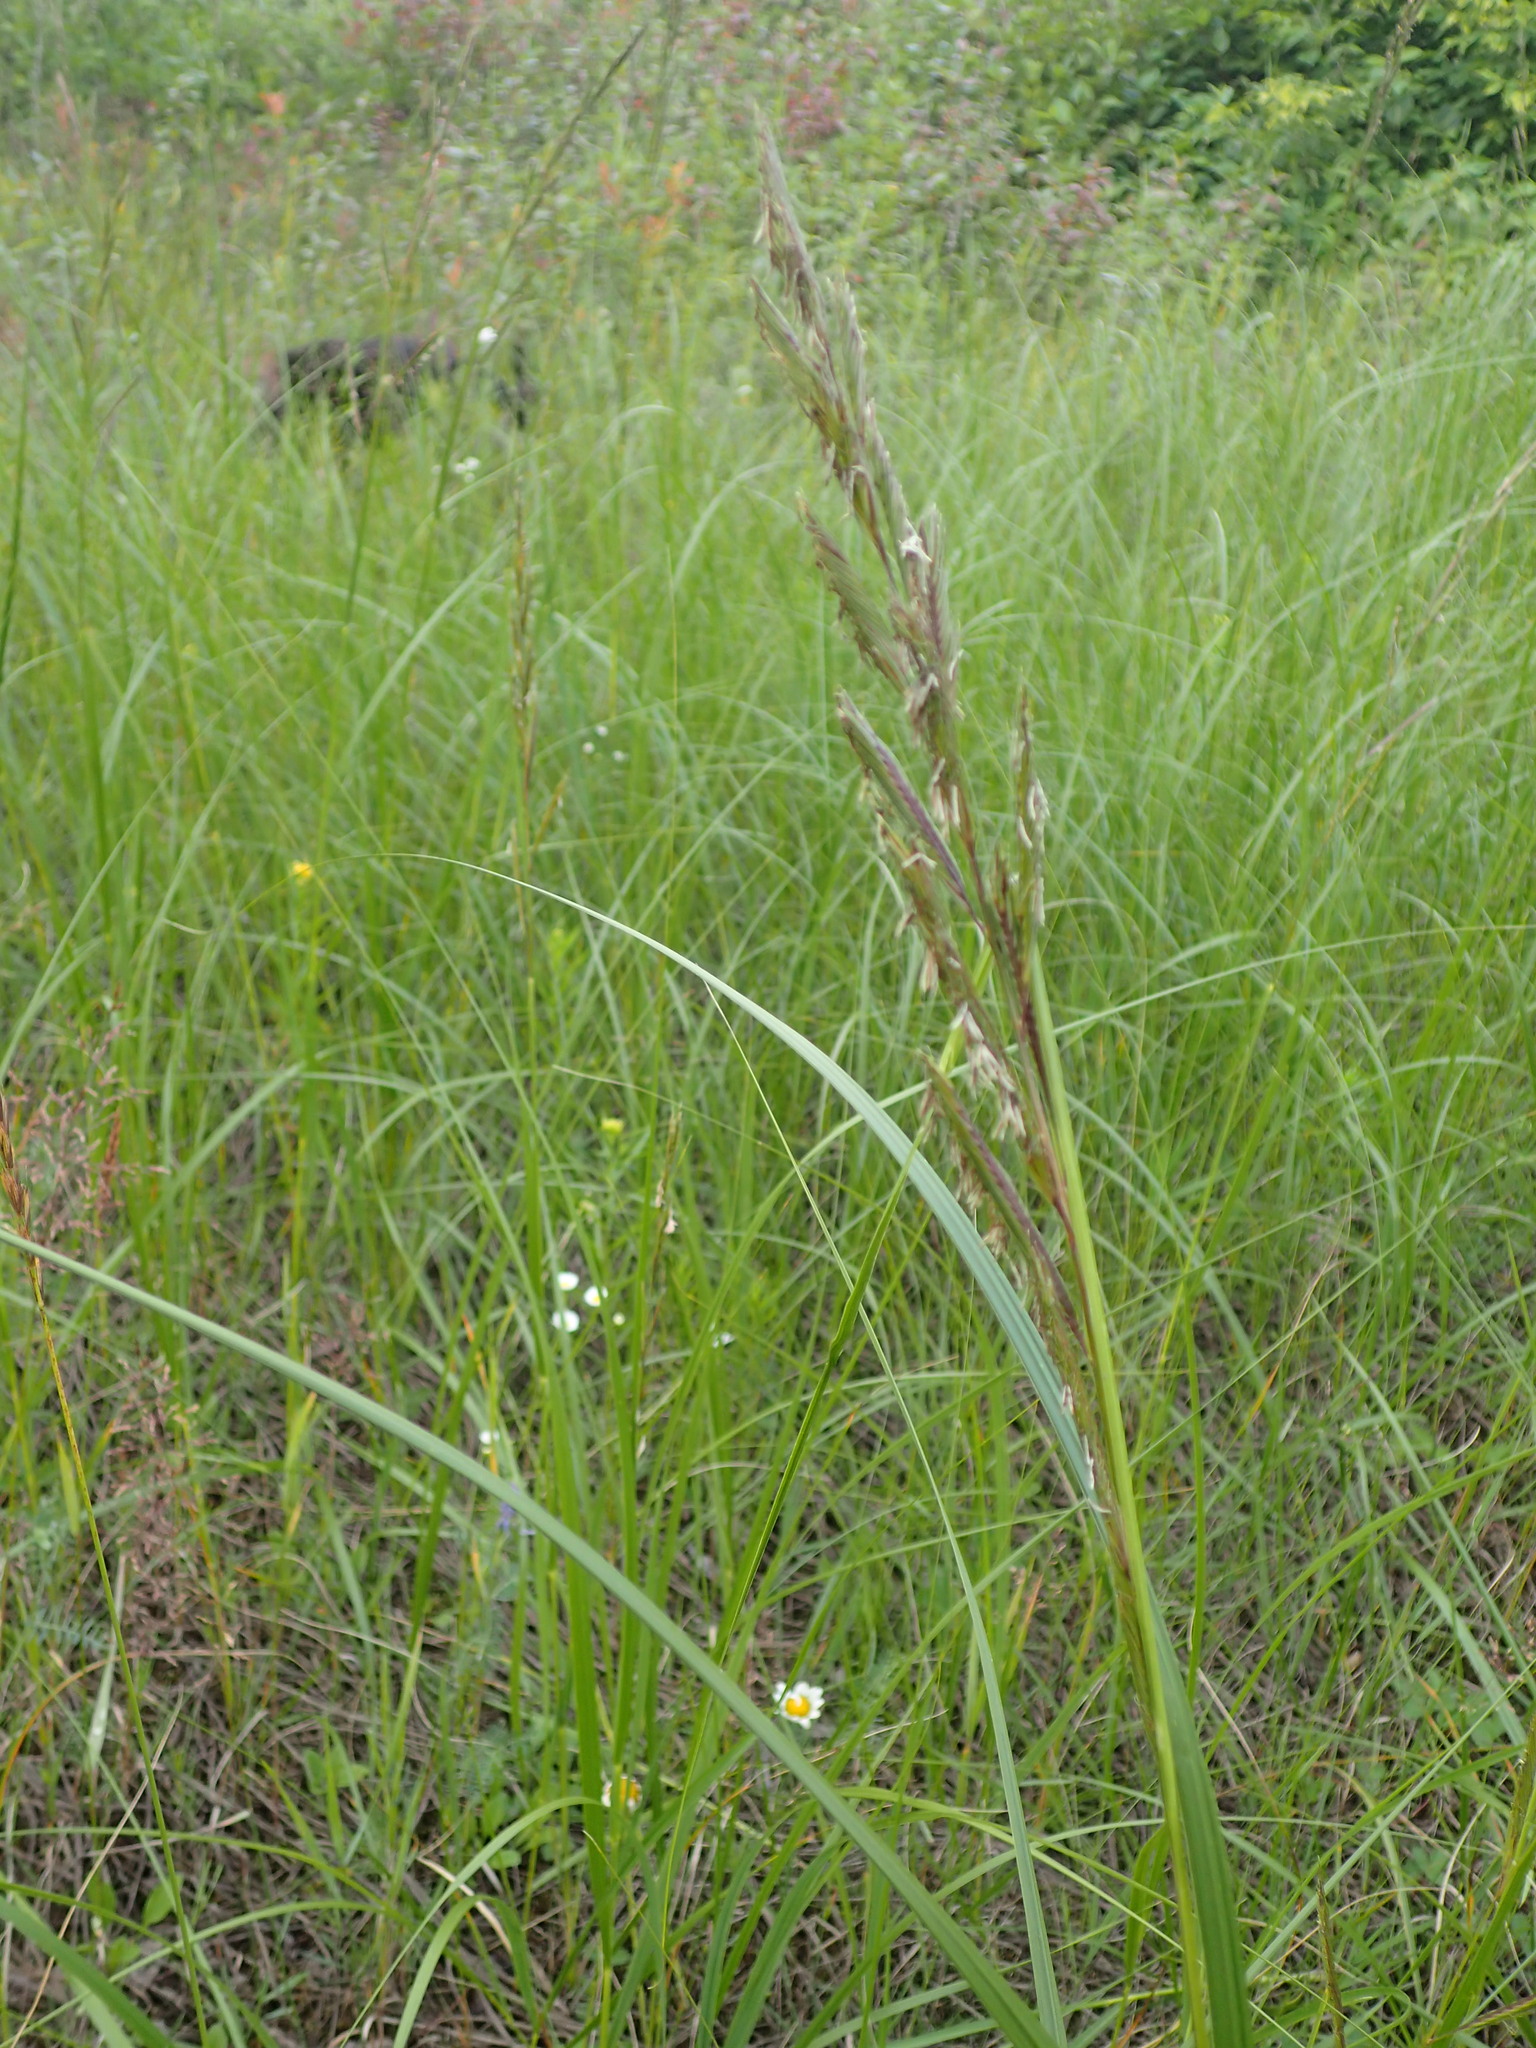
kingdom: Plantae
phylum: Tracheophyta
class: Liliopsida
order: Poales
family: Poaceae
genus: Sporobolus
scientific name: Sporobolus michauxianus
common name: Freshwater cordgrass
